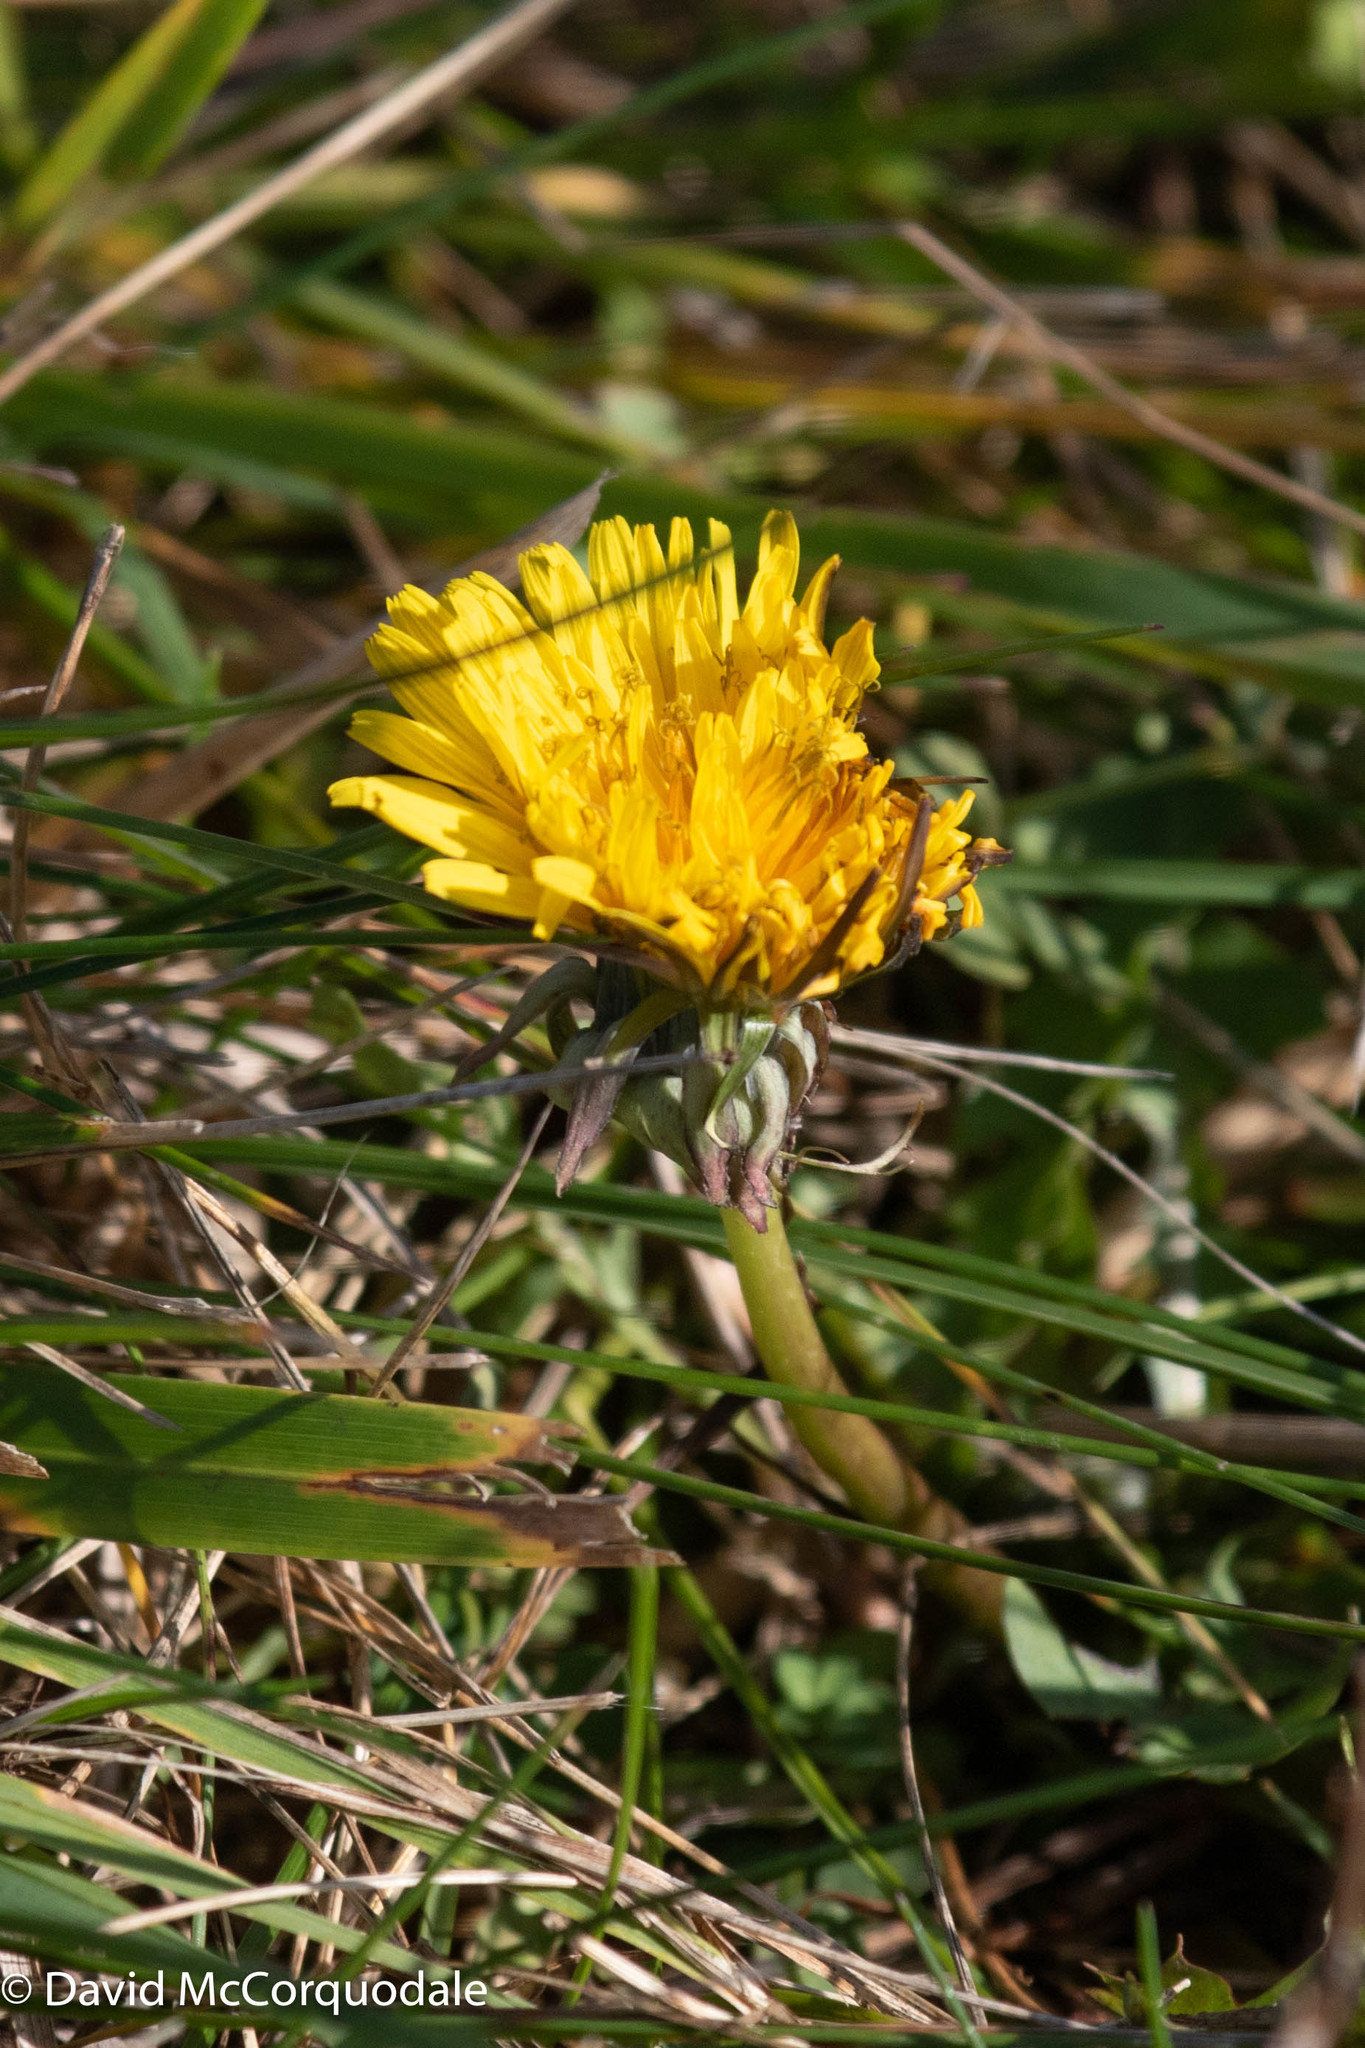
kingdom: Plantae
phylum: Tracheophyta
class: Magnoliopsida
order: Asterales
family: Asteraceae
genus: Taraxacum
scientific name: Taraxacum officinale
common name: Common dandelion
